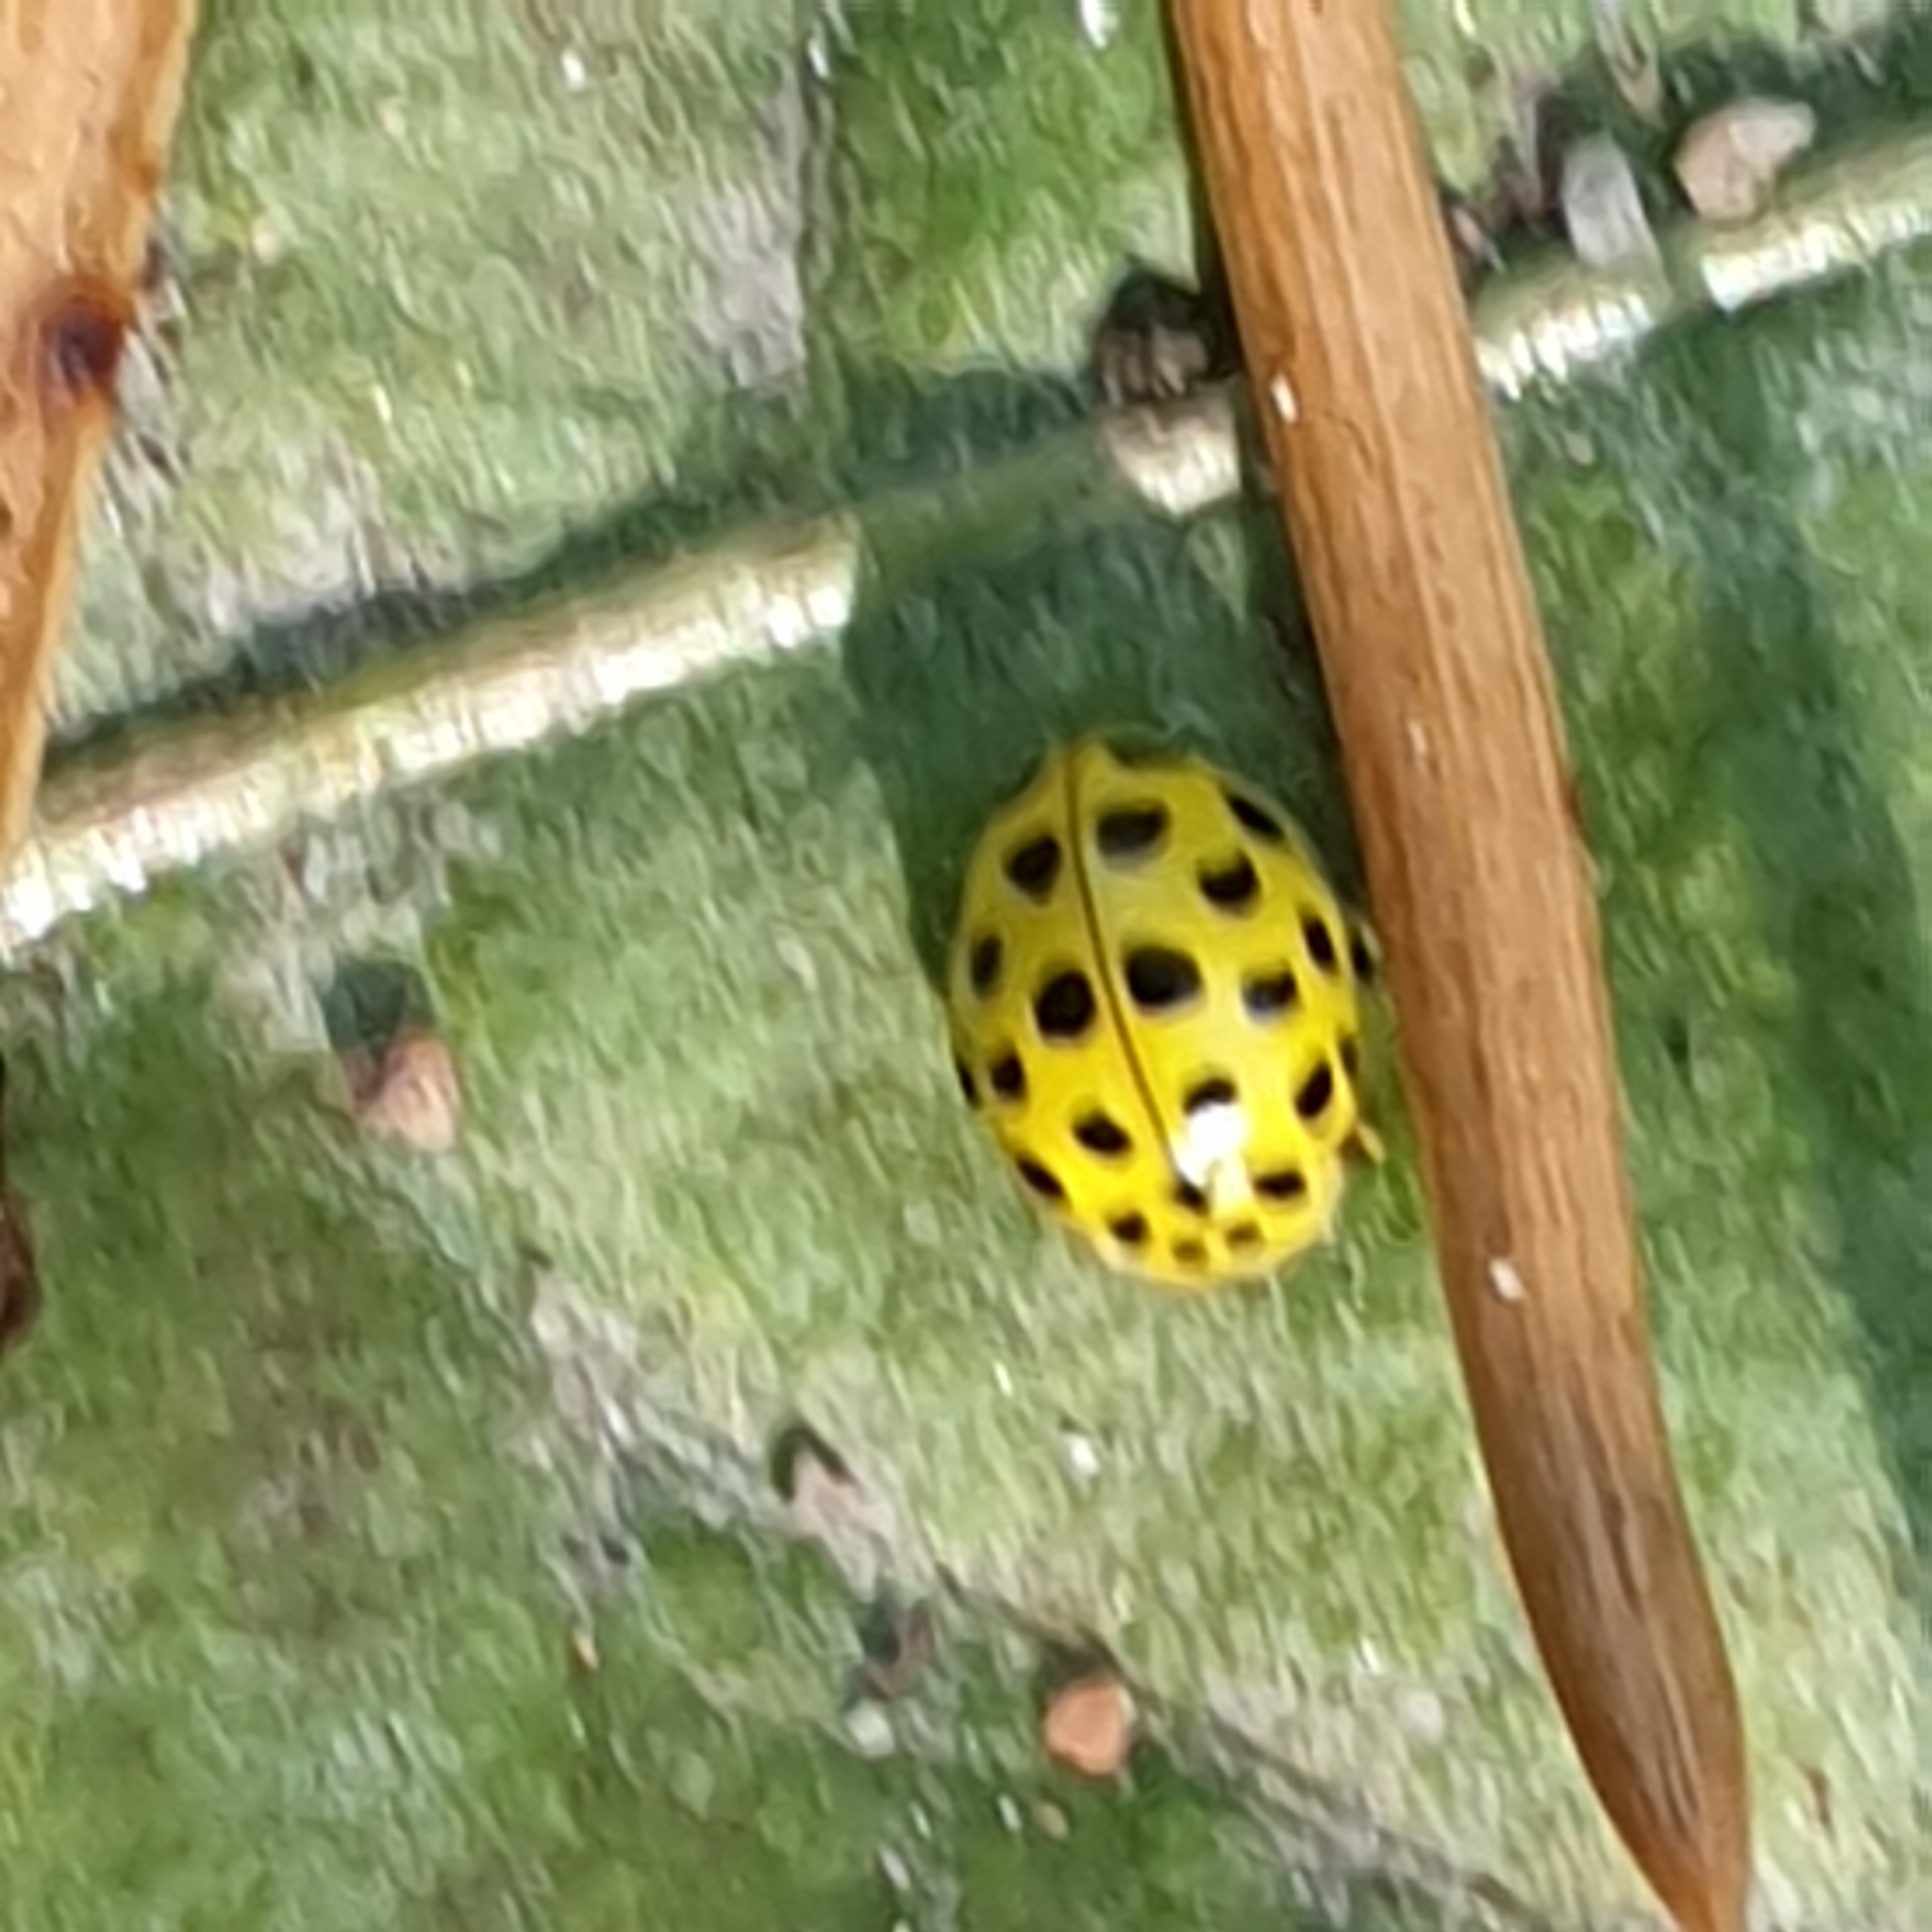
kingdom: Animalia
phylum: Arthropoda
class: Insecta
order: Coleoptera
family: Coccinellidae
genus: Psyllobora
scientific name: Psyllobora vigintiduopunctata
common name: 22-spot ladybird
